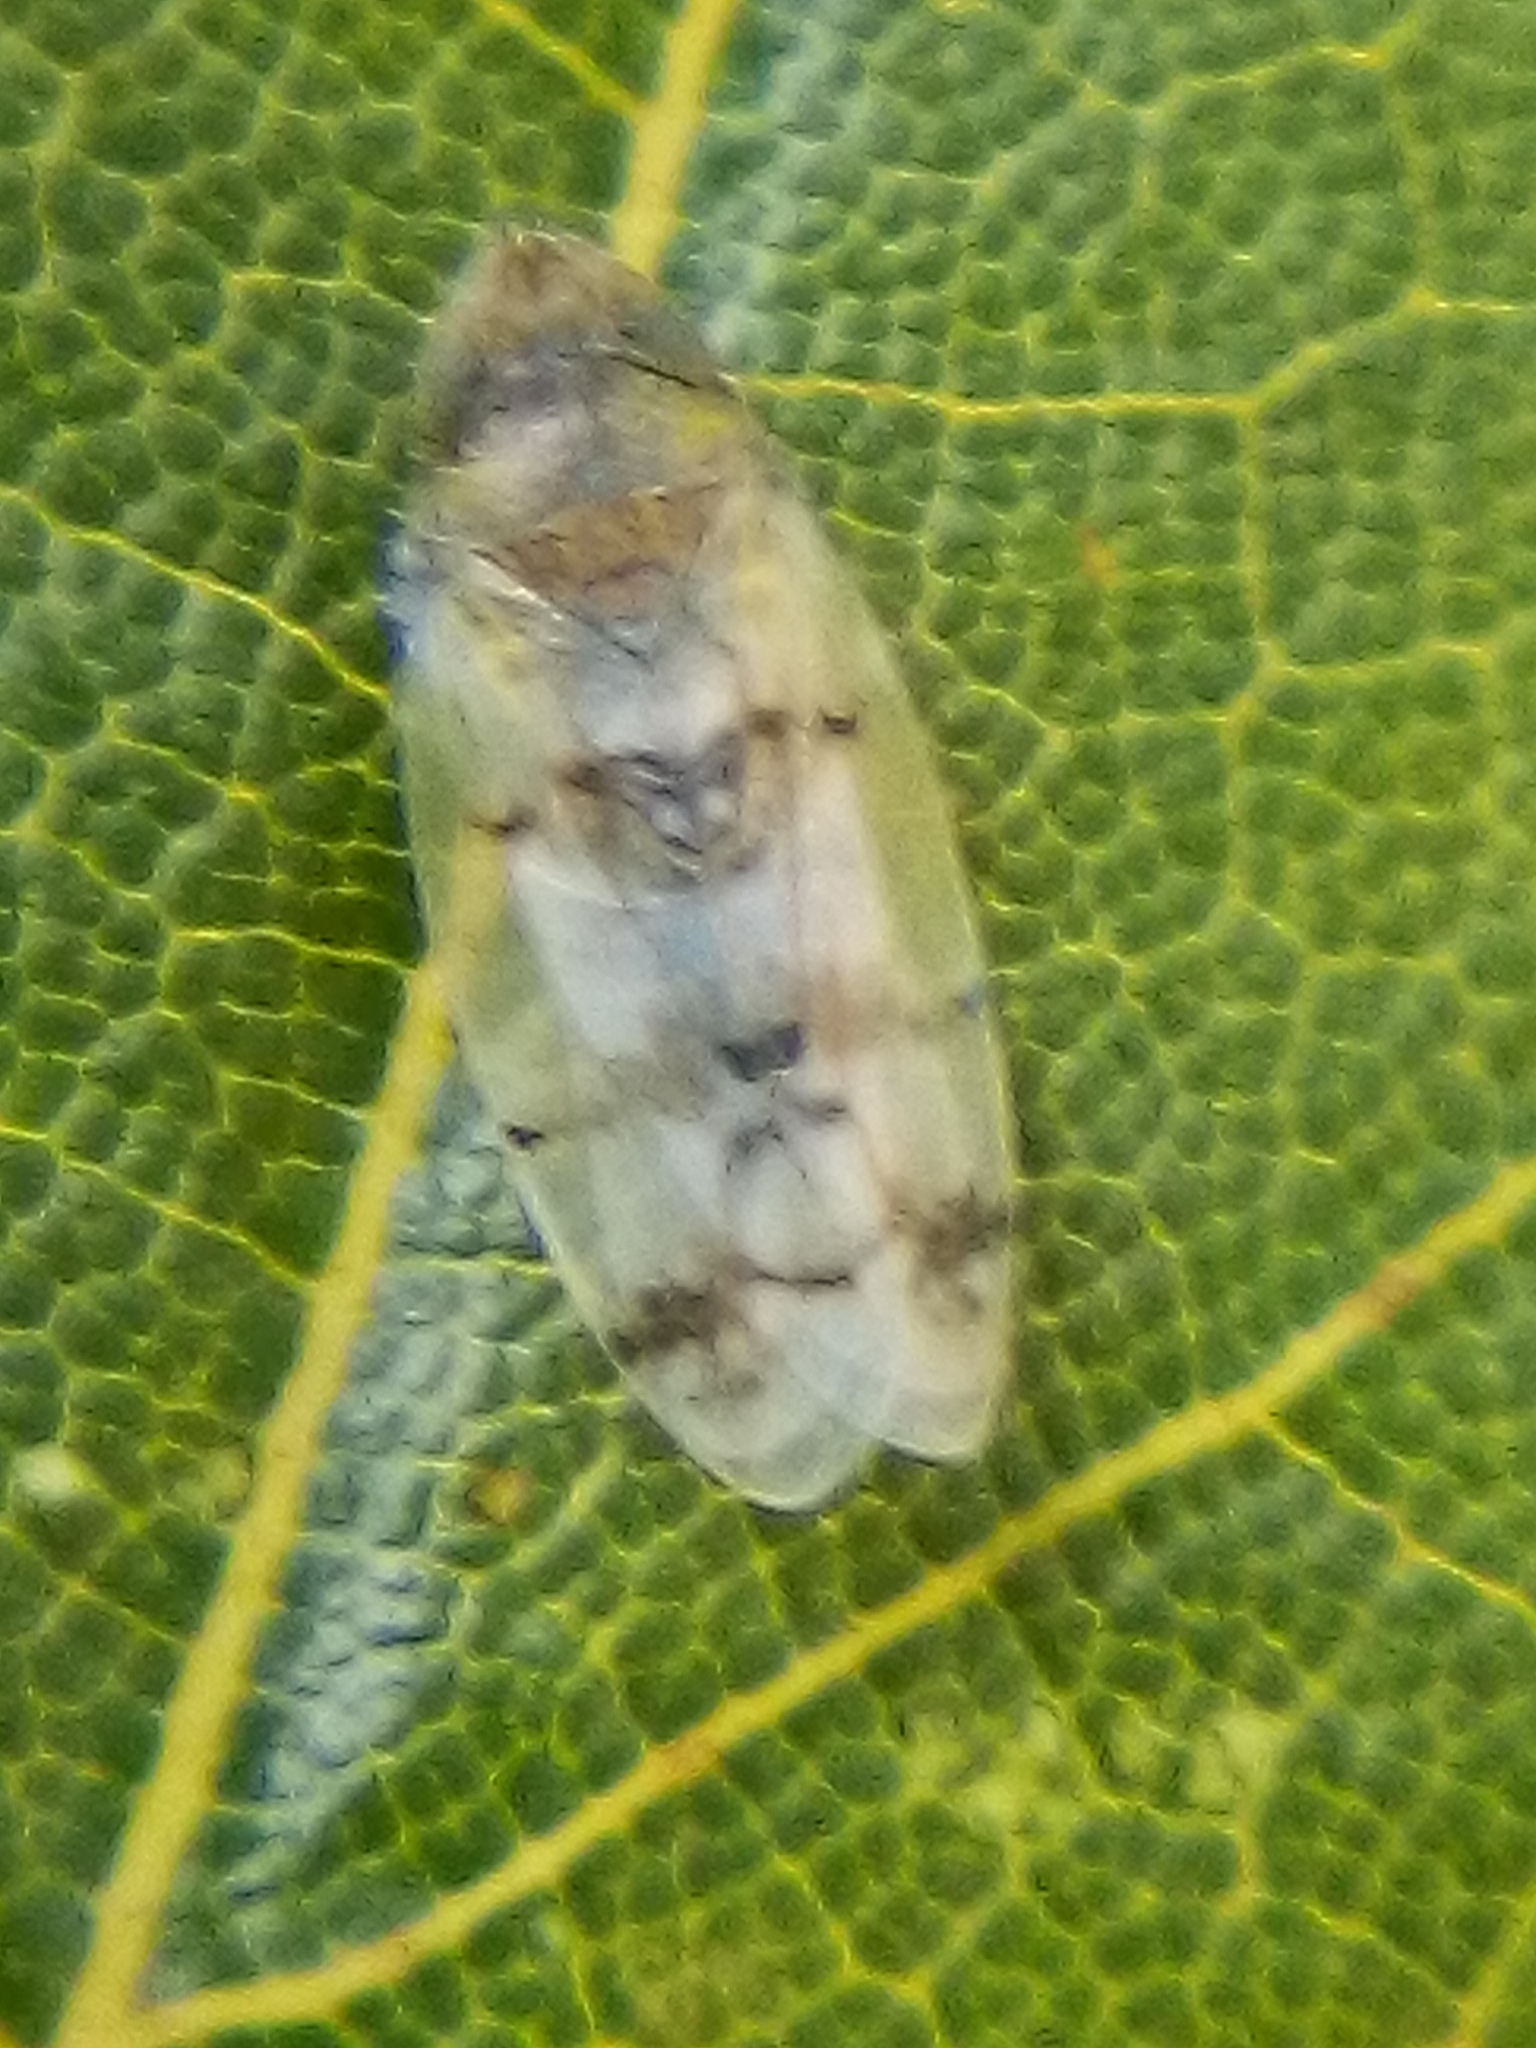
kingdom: Animalia
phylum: Arthropoda
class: Insecta
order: Hemiptera
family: Cicadellidae
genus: Japananus
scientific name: Japananus hyalinus
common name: The japanese maple leafhopper
